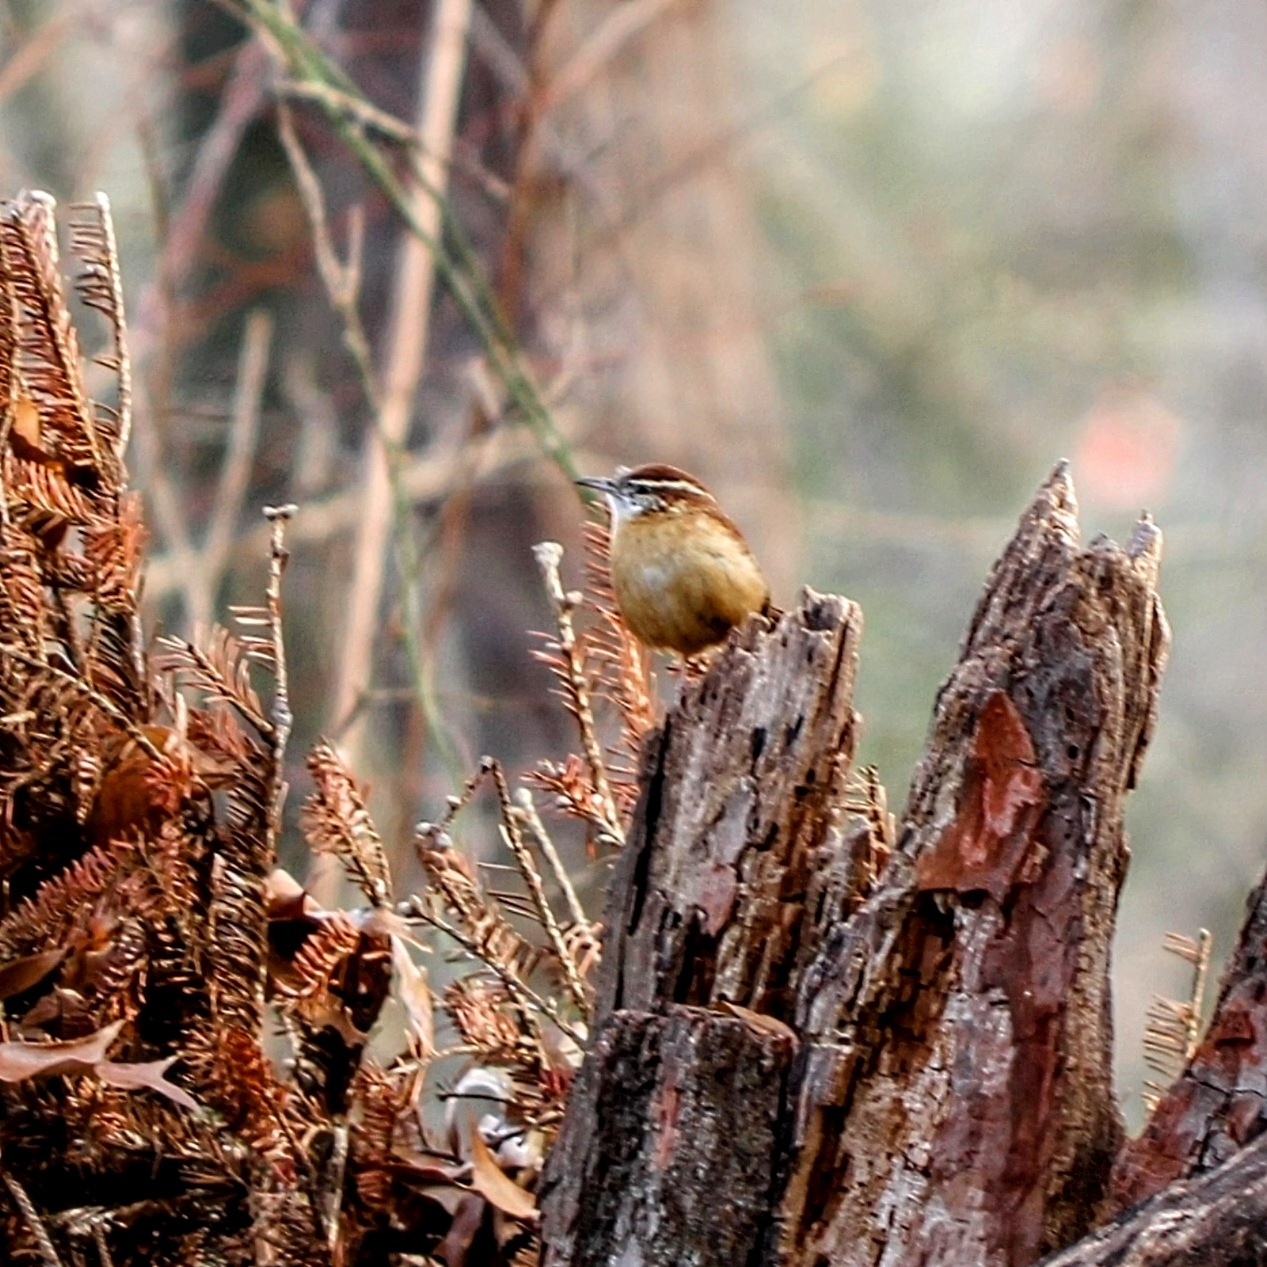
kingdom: Animalia
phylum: Chordata
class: Aves
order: Passeriformes
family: Troglodytidae
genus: Thryothorus
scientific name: Thryothorus ludovicianus
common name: Carolina wren
